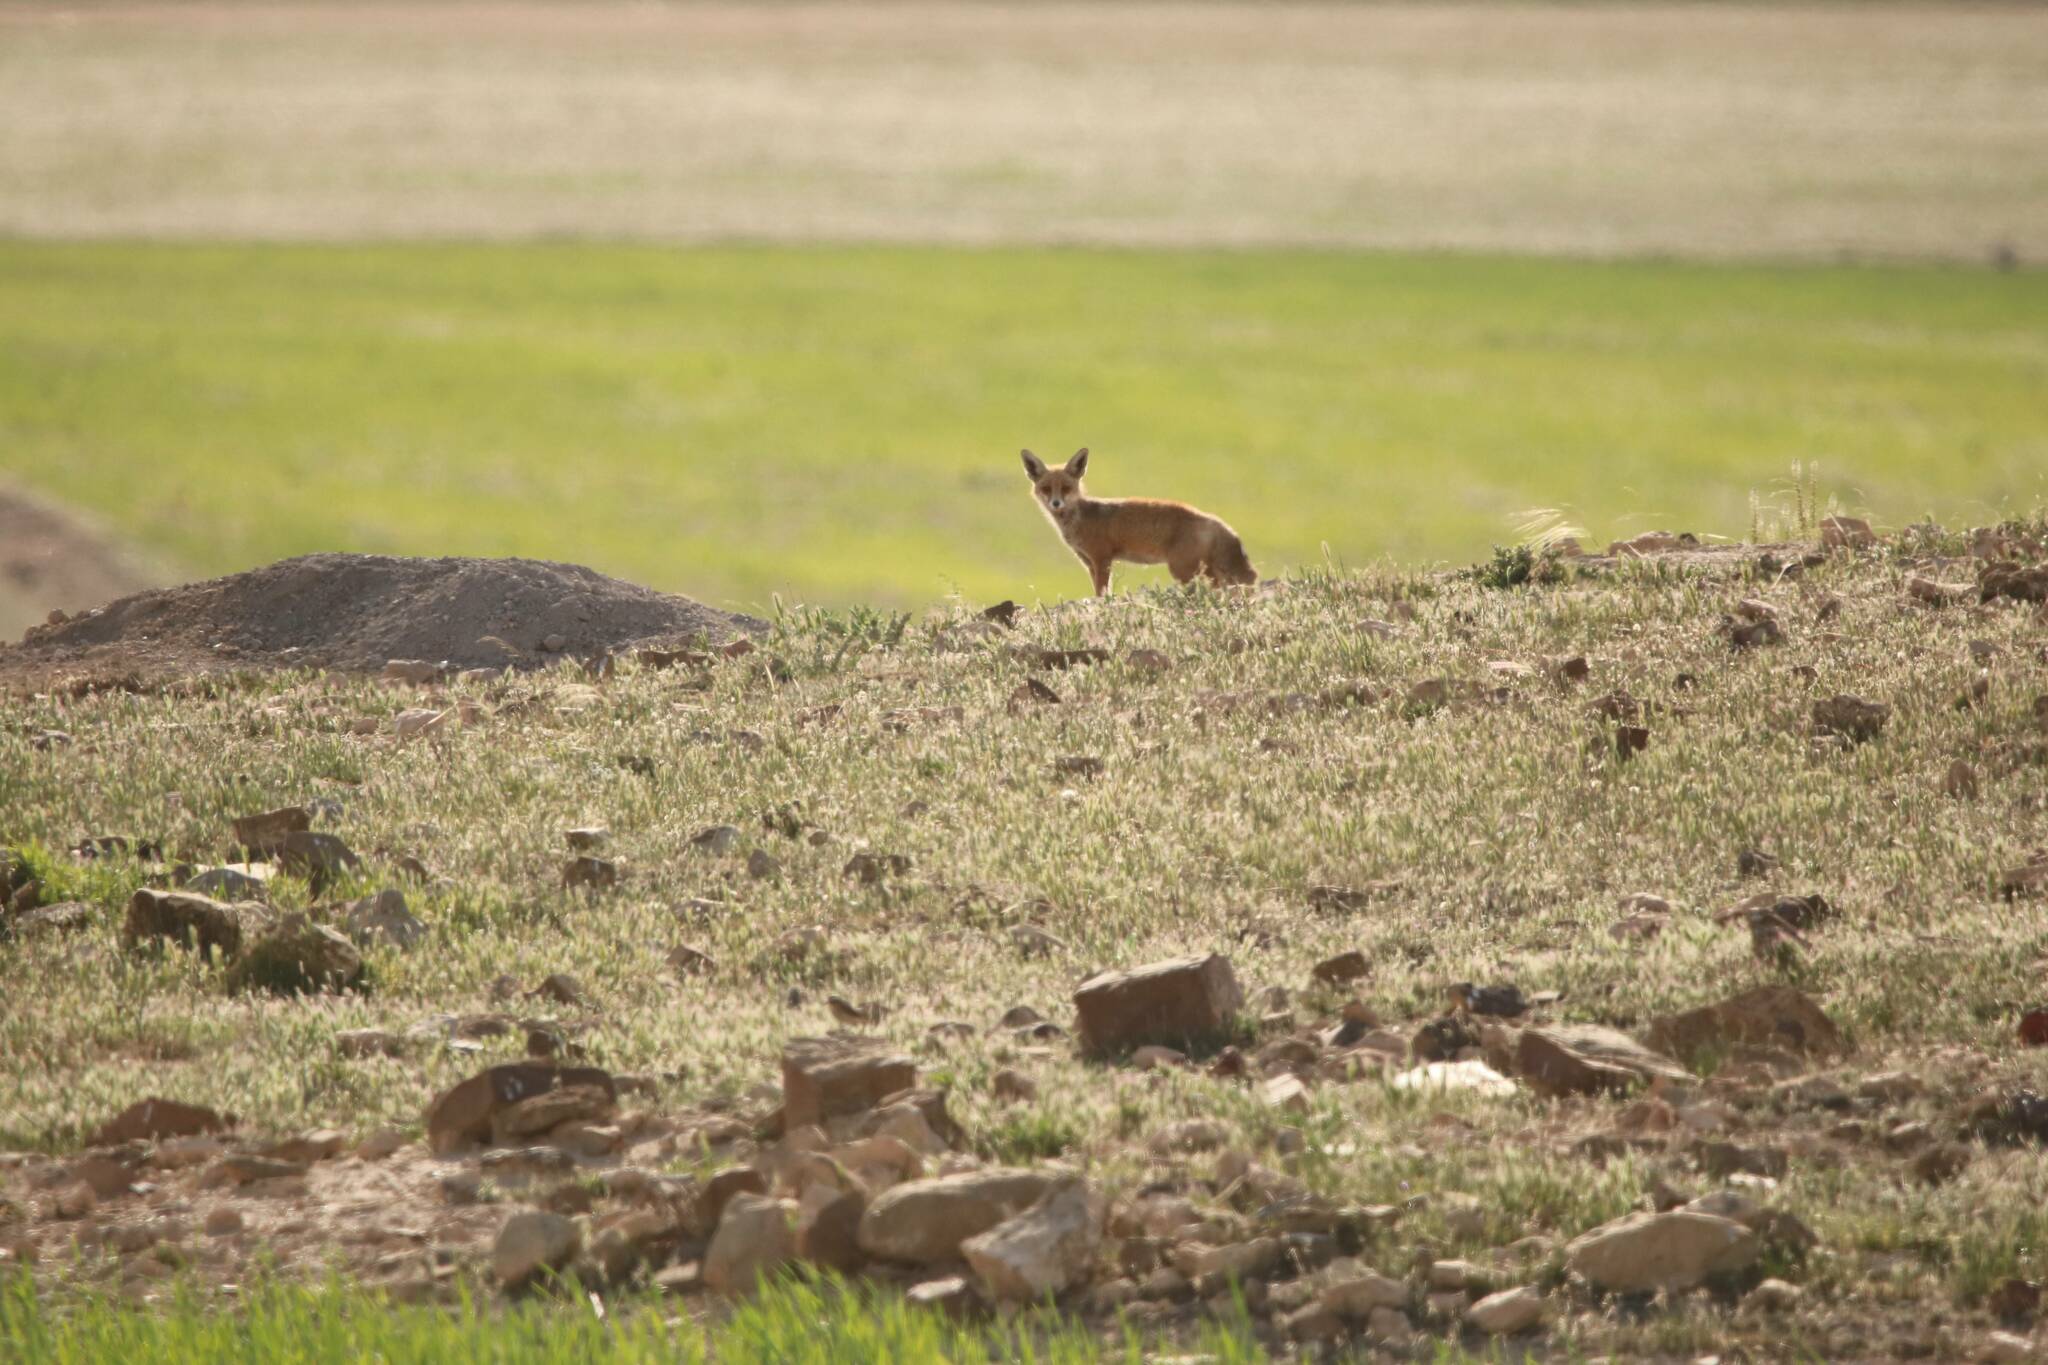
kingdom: Animalia
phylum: Chordata
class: Mammalia
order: Carnivora
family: Canidae
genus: Vulpes
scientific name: Vulpes vulpes
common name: Red fox
